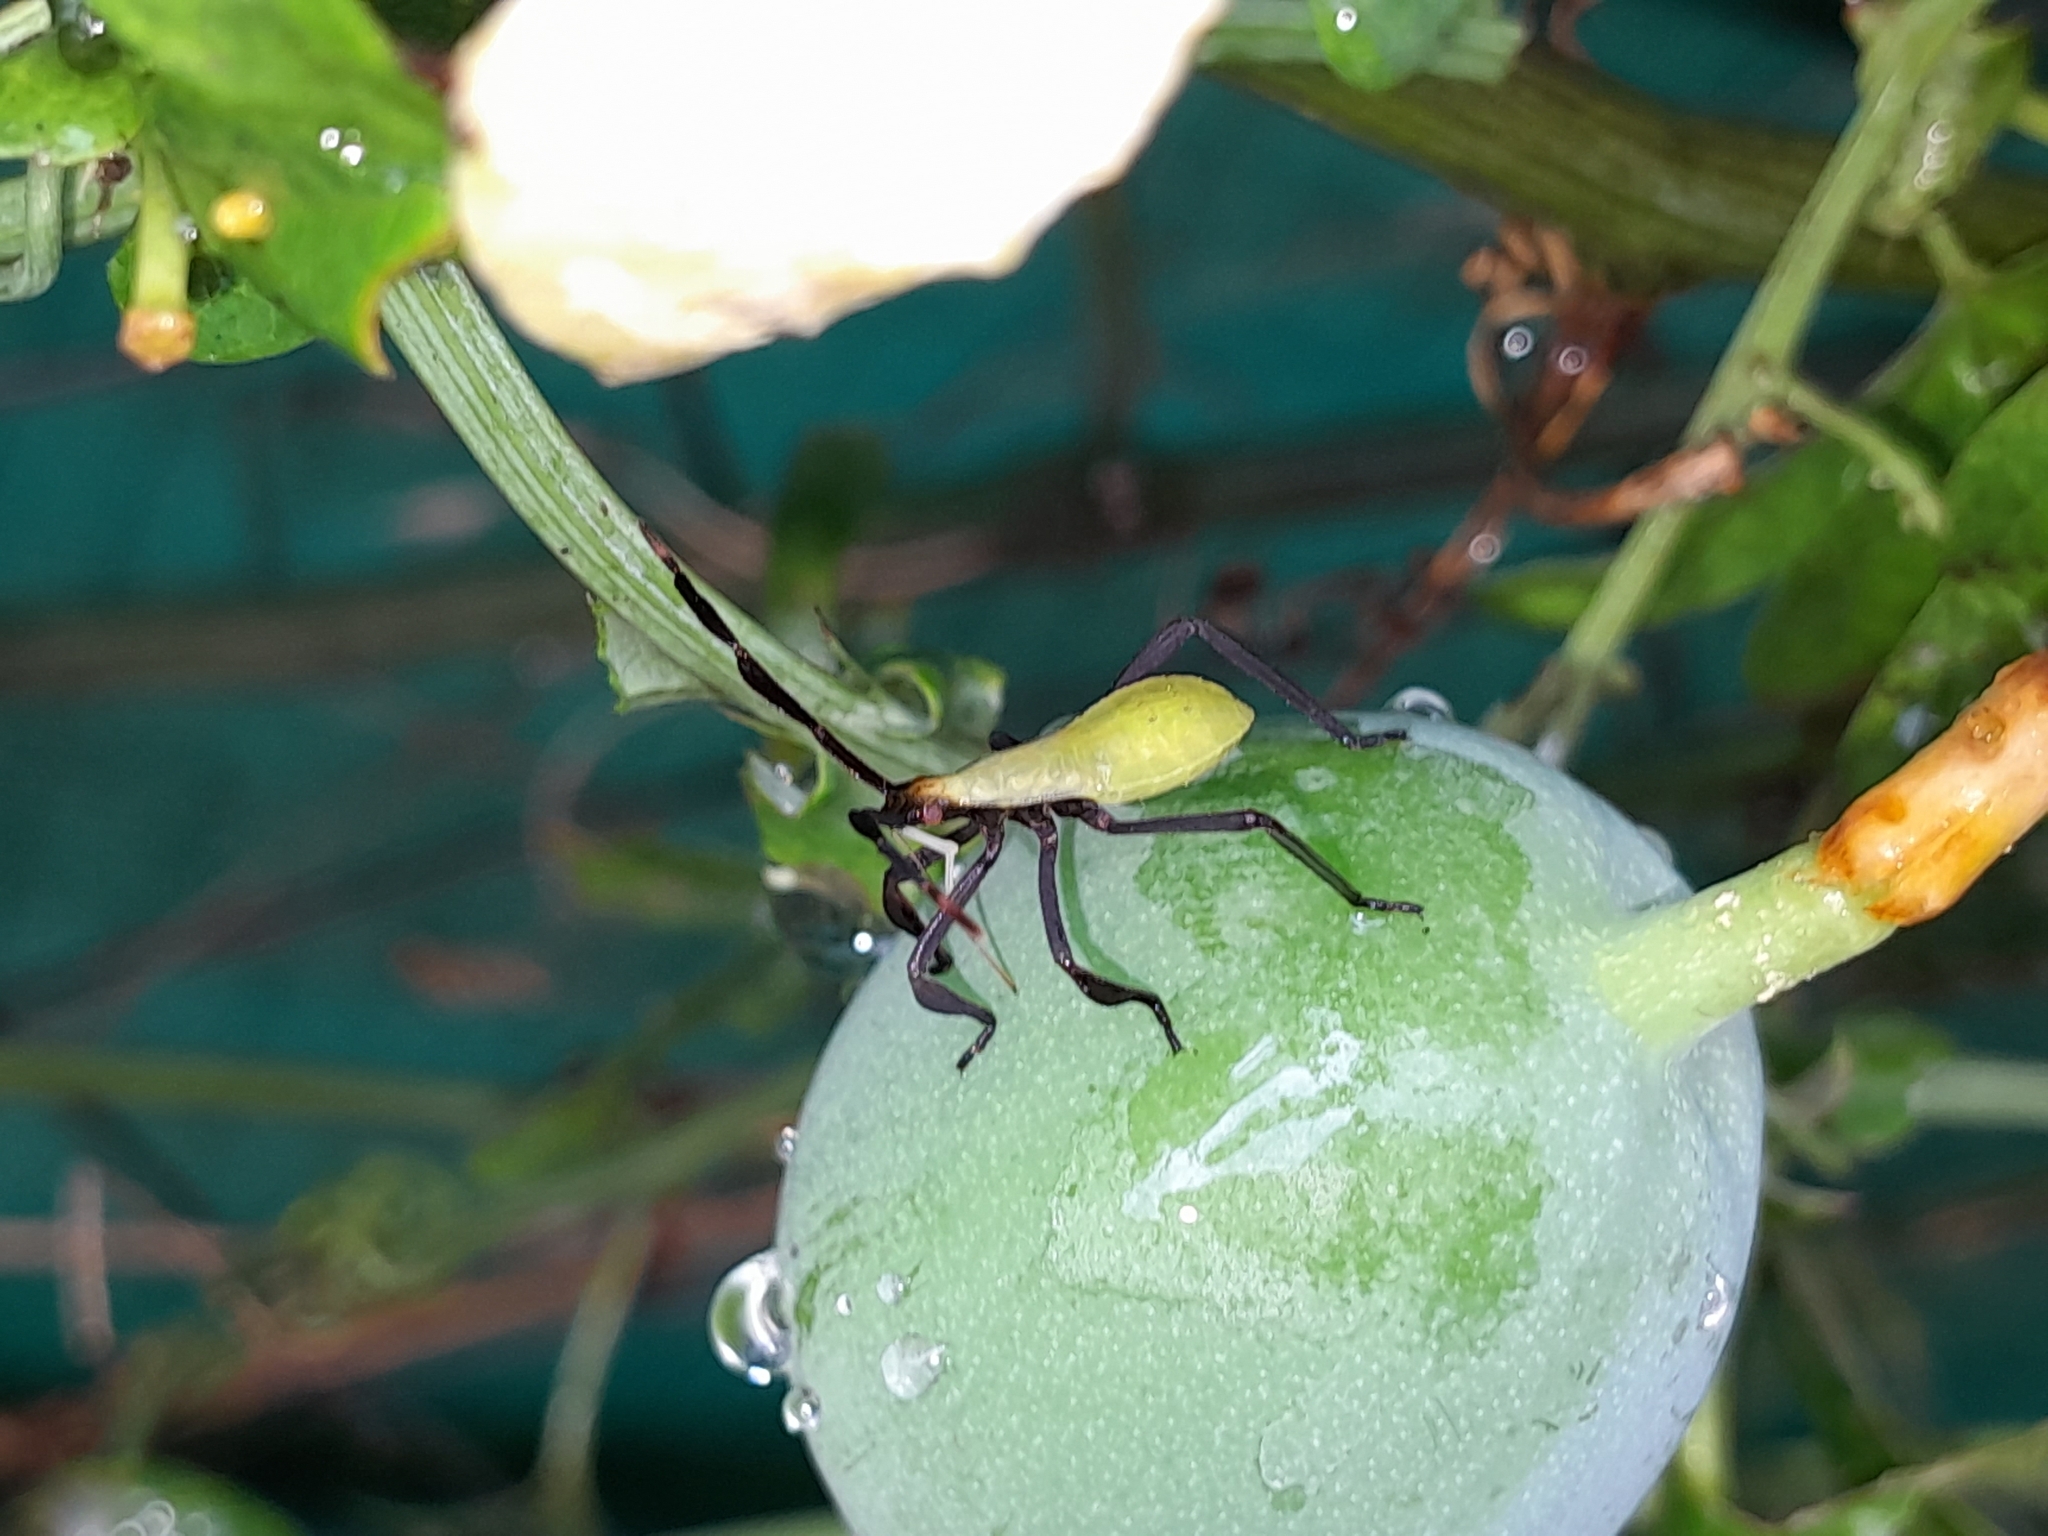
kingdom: Animalia
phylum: Arthropoda
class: Insecta
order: Hemiptera
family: Coreidae
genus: Holhymenia
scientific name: Holhymenia histrio
